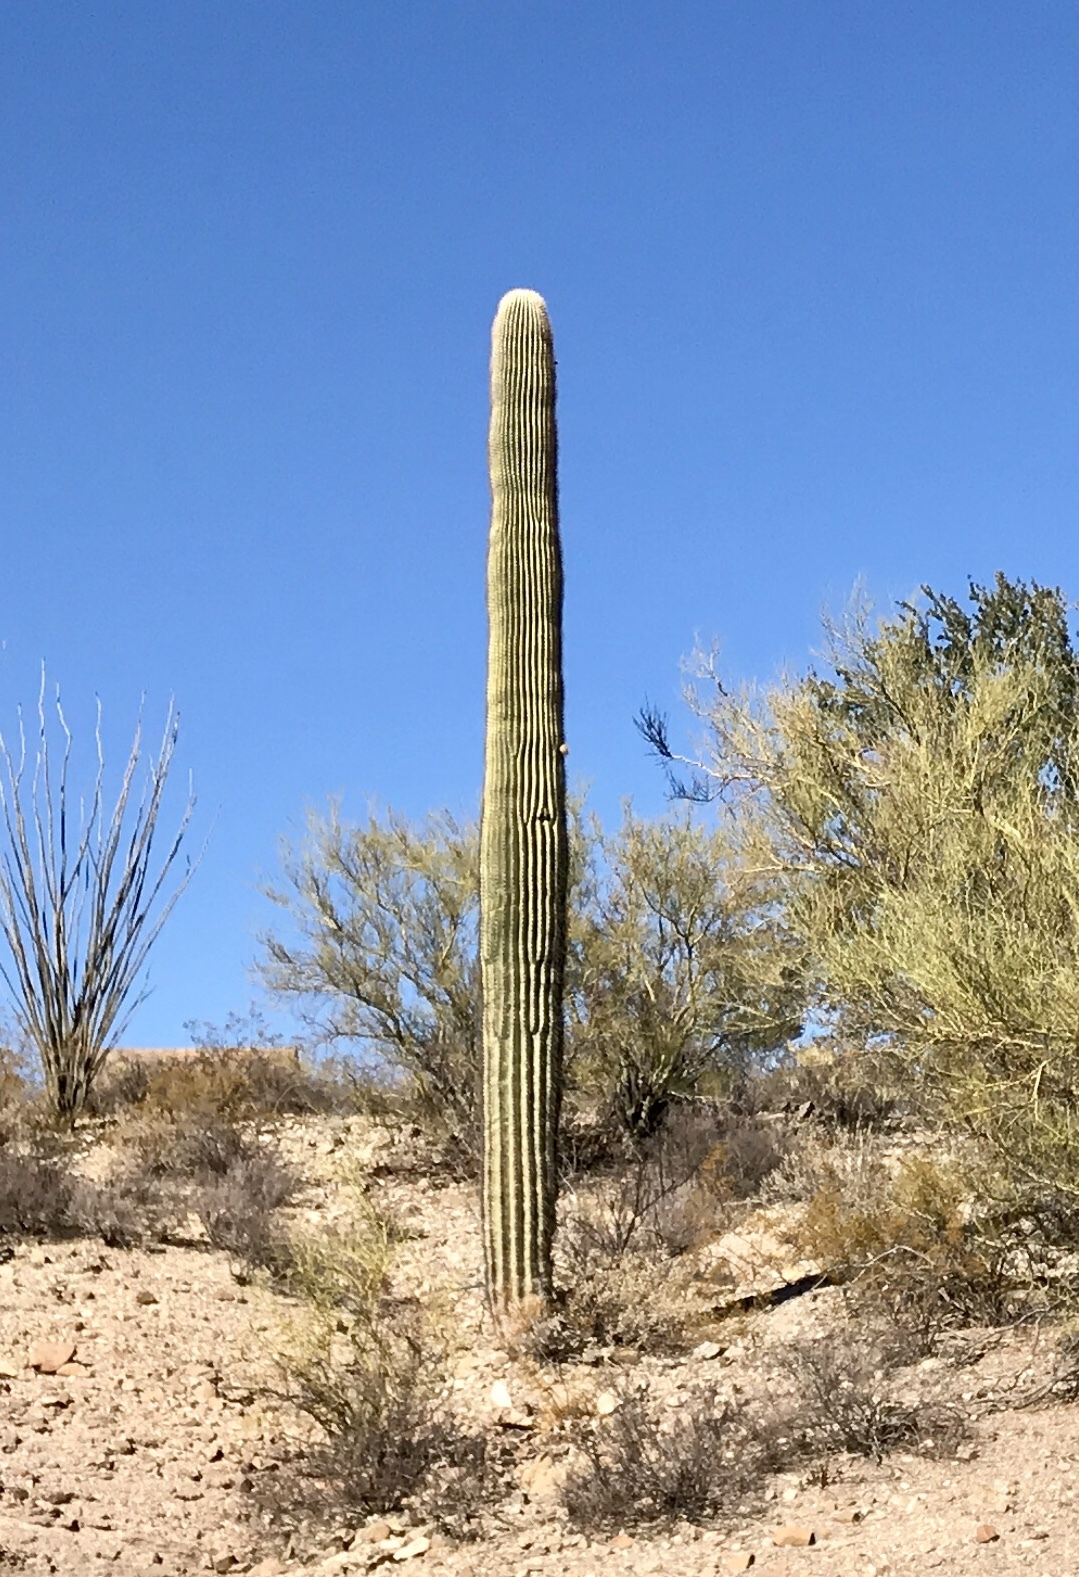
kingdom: Plantae
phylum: Tracheophyta
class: Magnoliopsida
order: Caryophyllales
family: Cactaceae
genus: Carnegiea
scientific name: Carnegiea gigantea
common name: Saguaro
